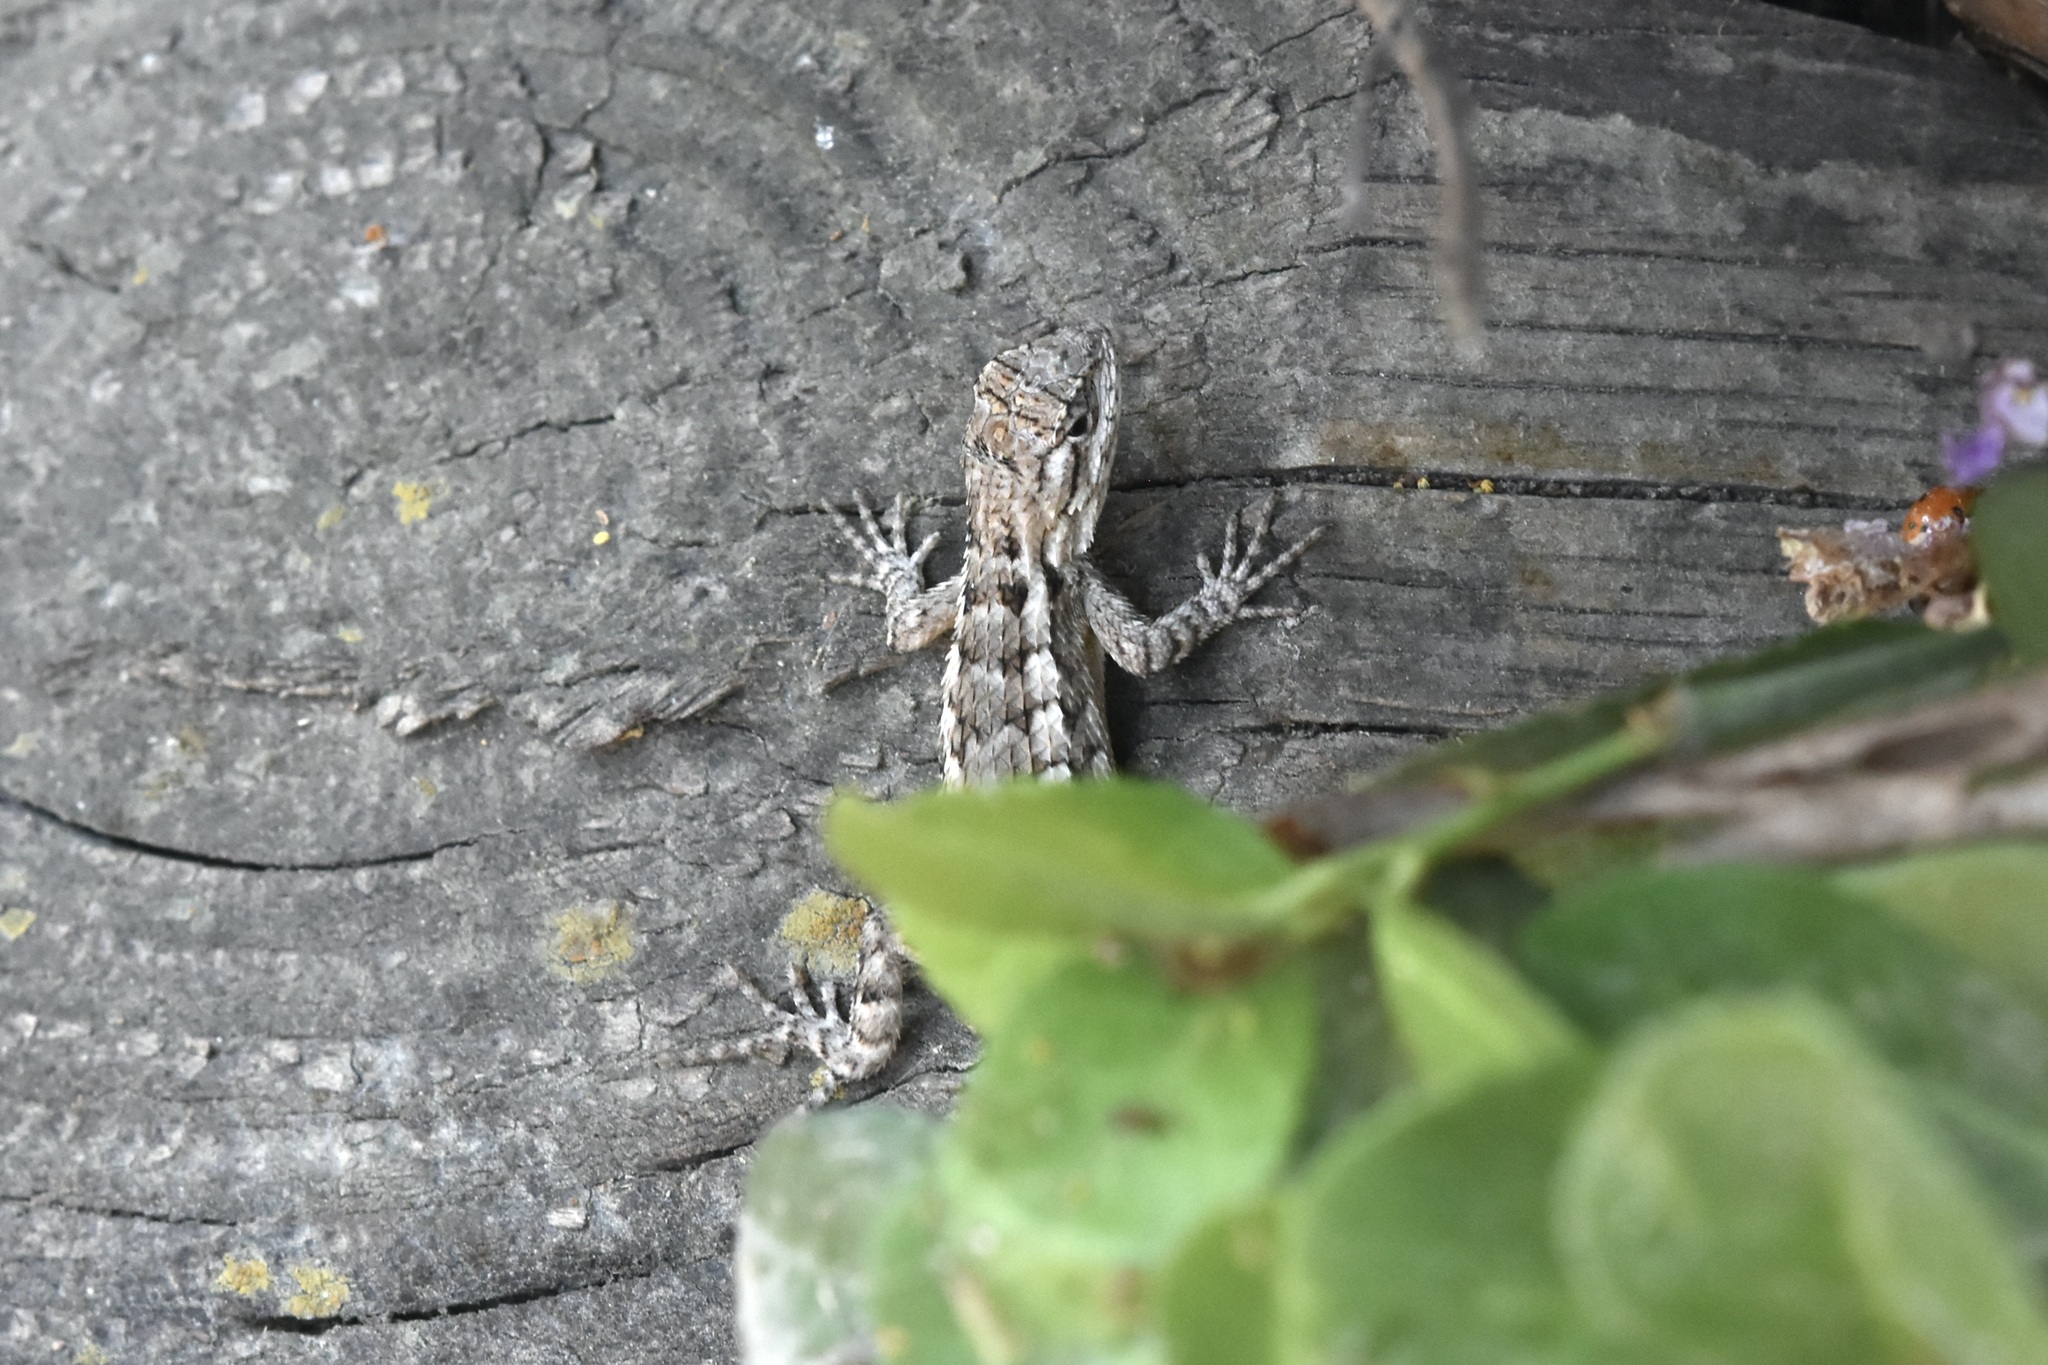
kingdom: Animalia
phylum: Chordata
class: Squamata
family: Phrynosomatidae
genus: Sceloporus
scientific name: Sceloporus olivaceus
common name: Texas spiny lizard
